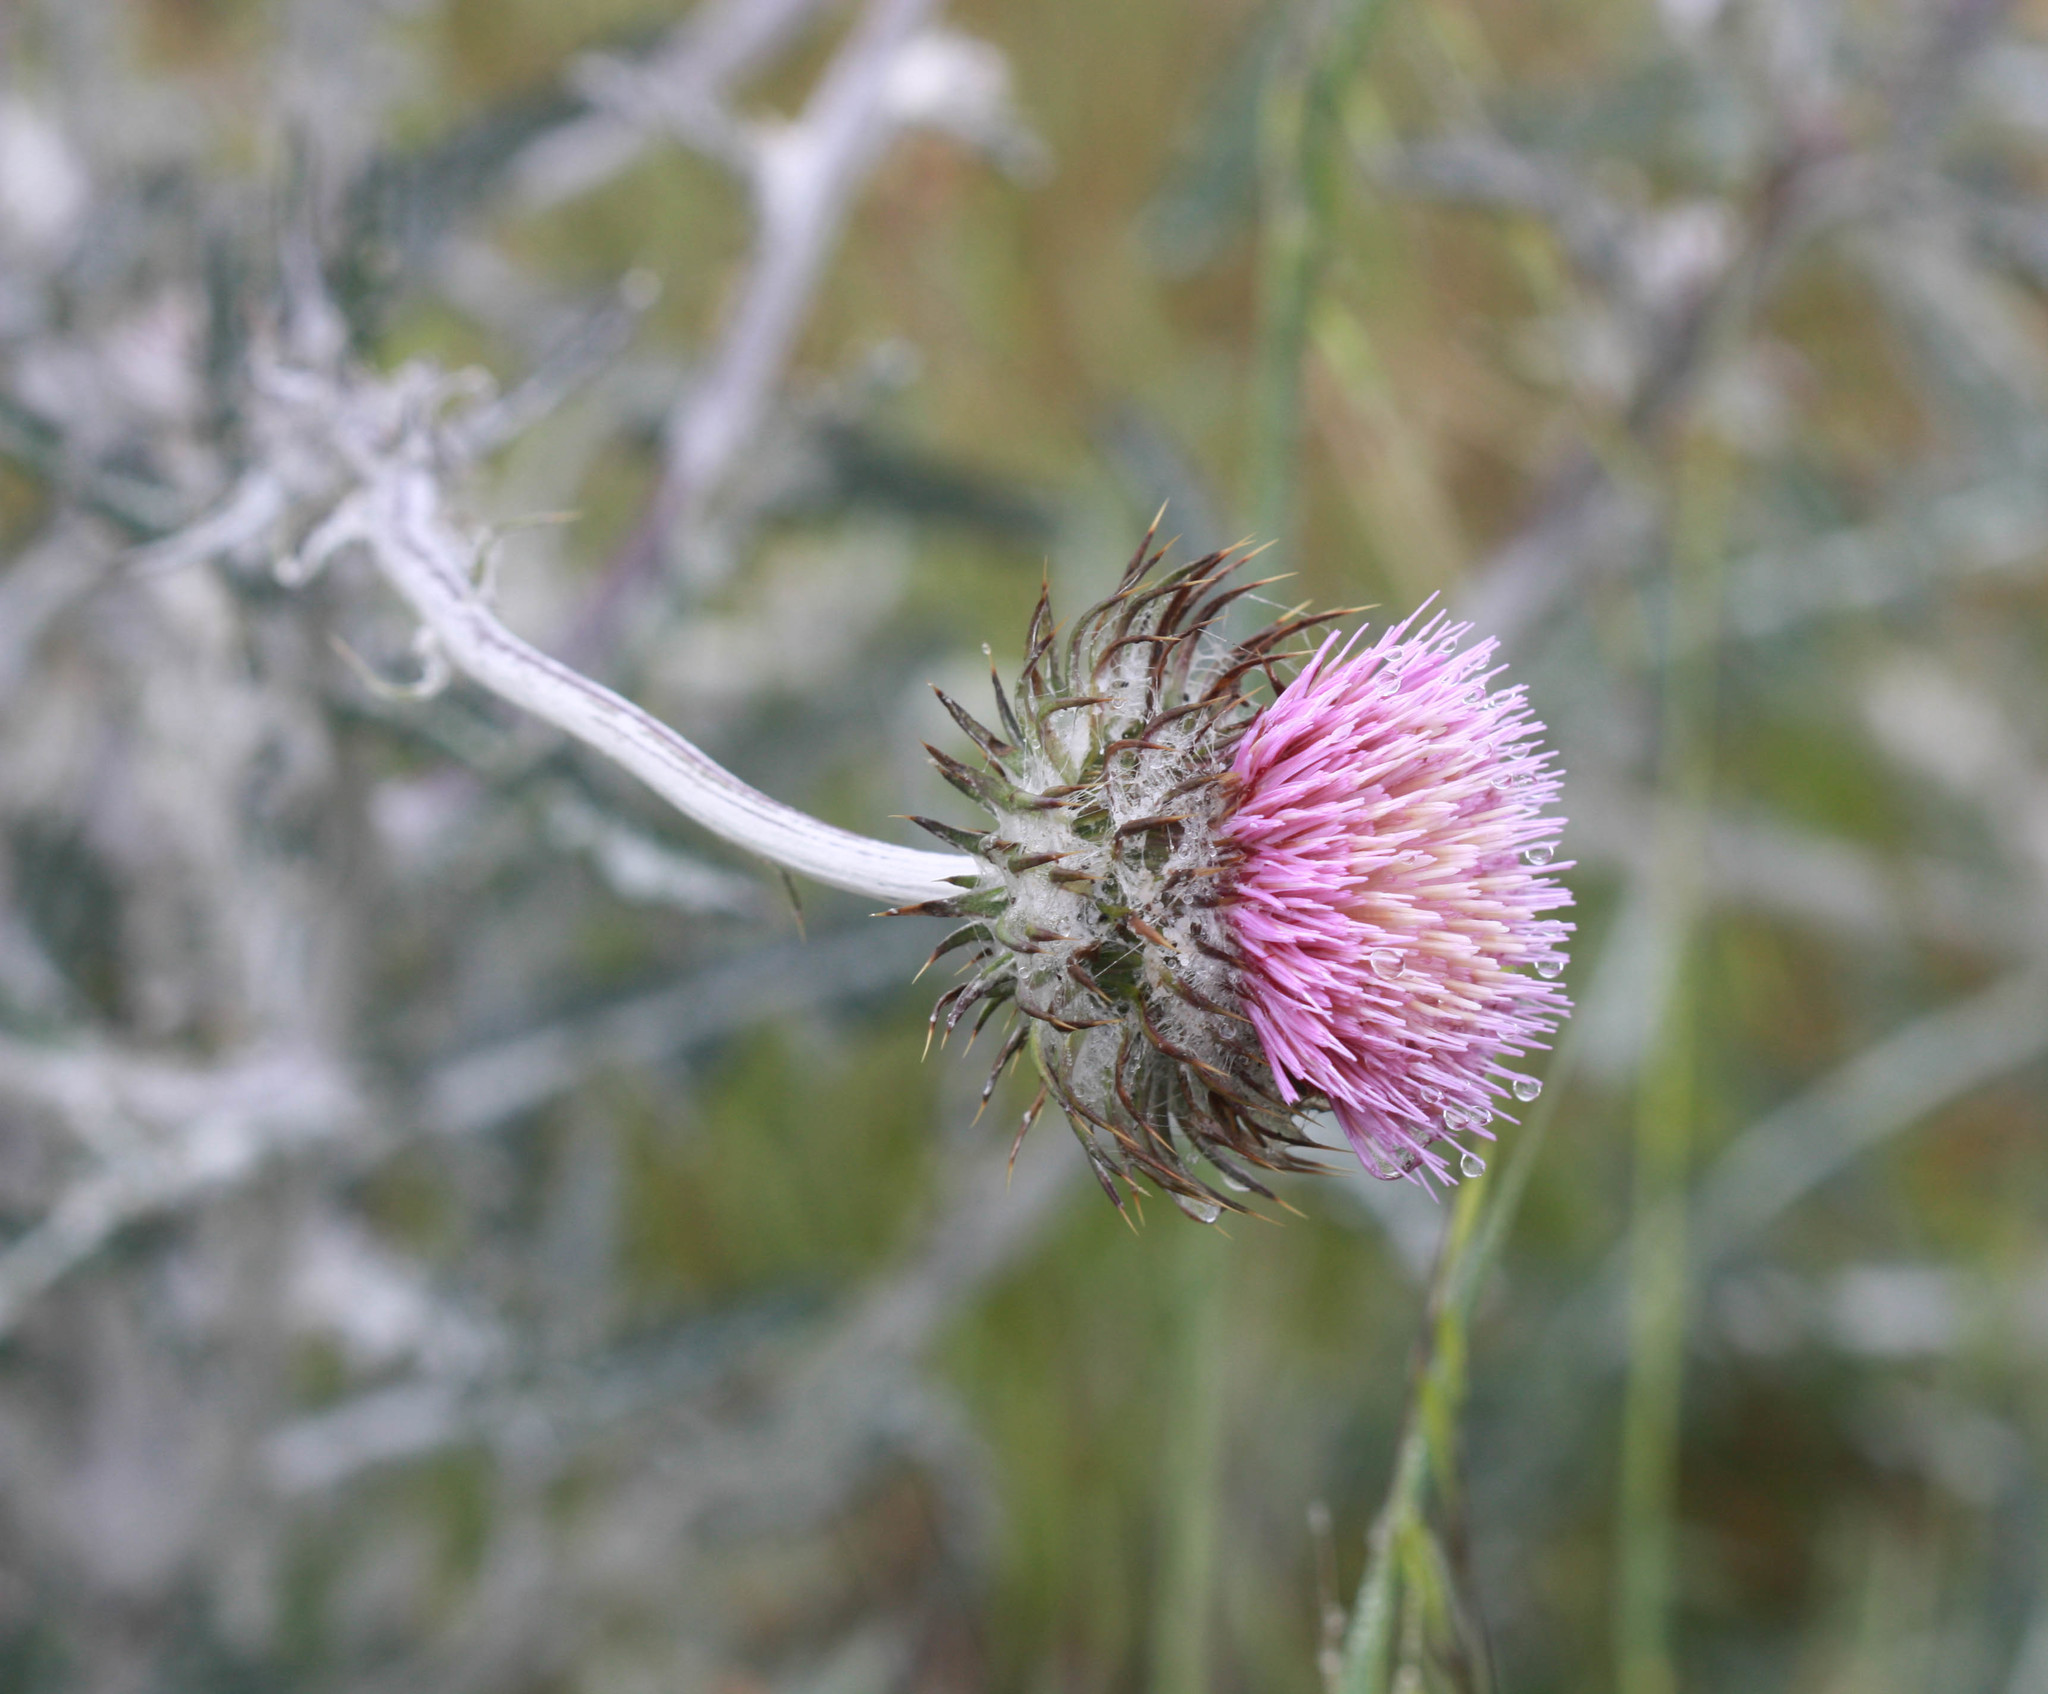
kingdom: Plantae
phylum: Tracheophyta
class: Magnoliopsida
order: Asterales
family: Asteraceae
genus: Cirsium
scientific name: Cirsium occidentale
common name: Western thistle
